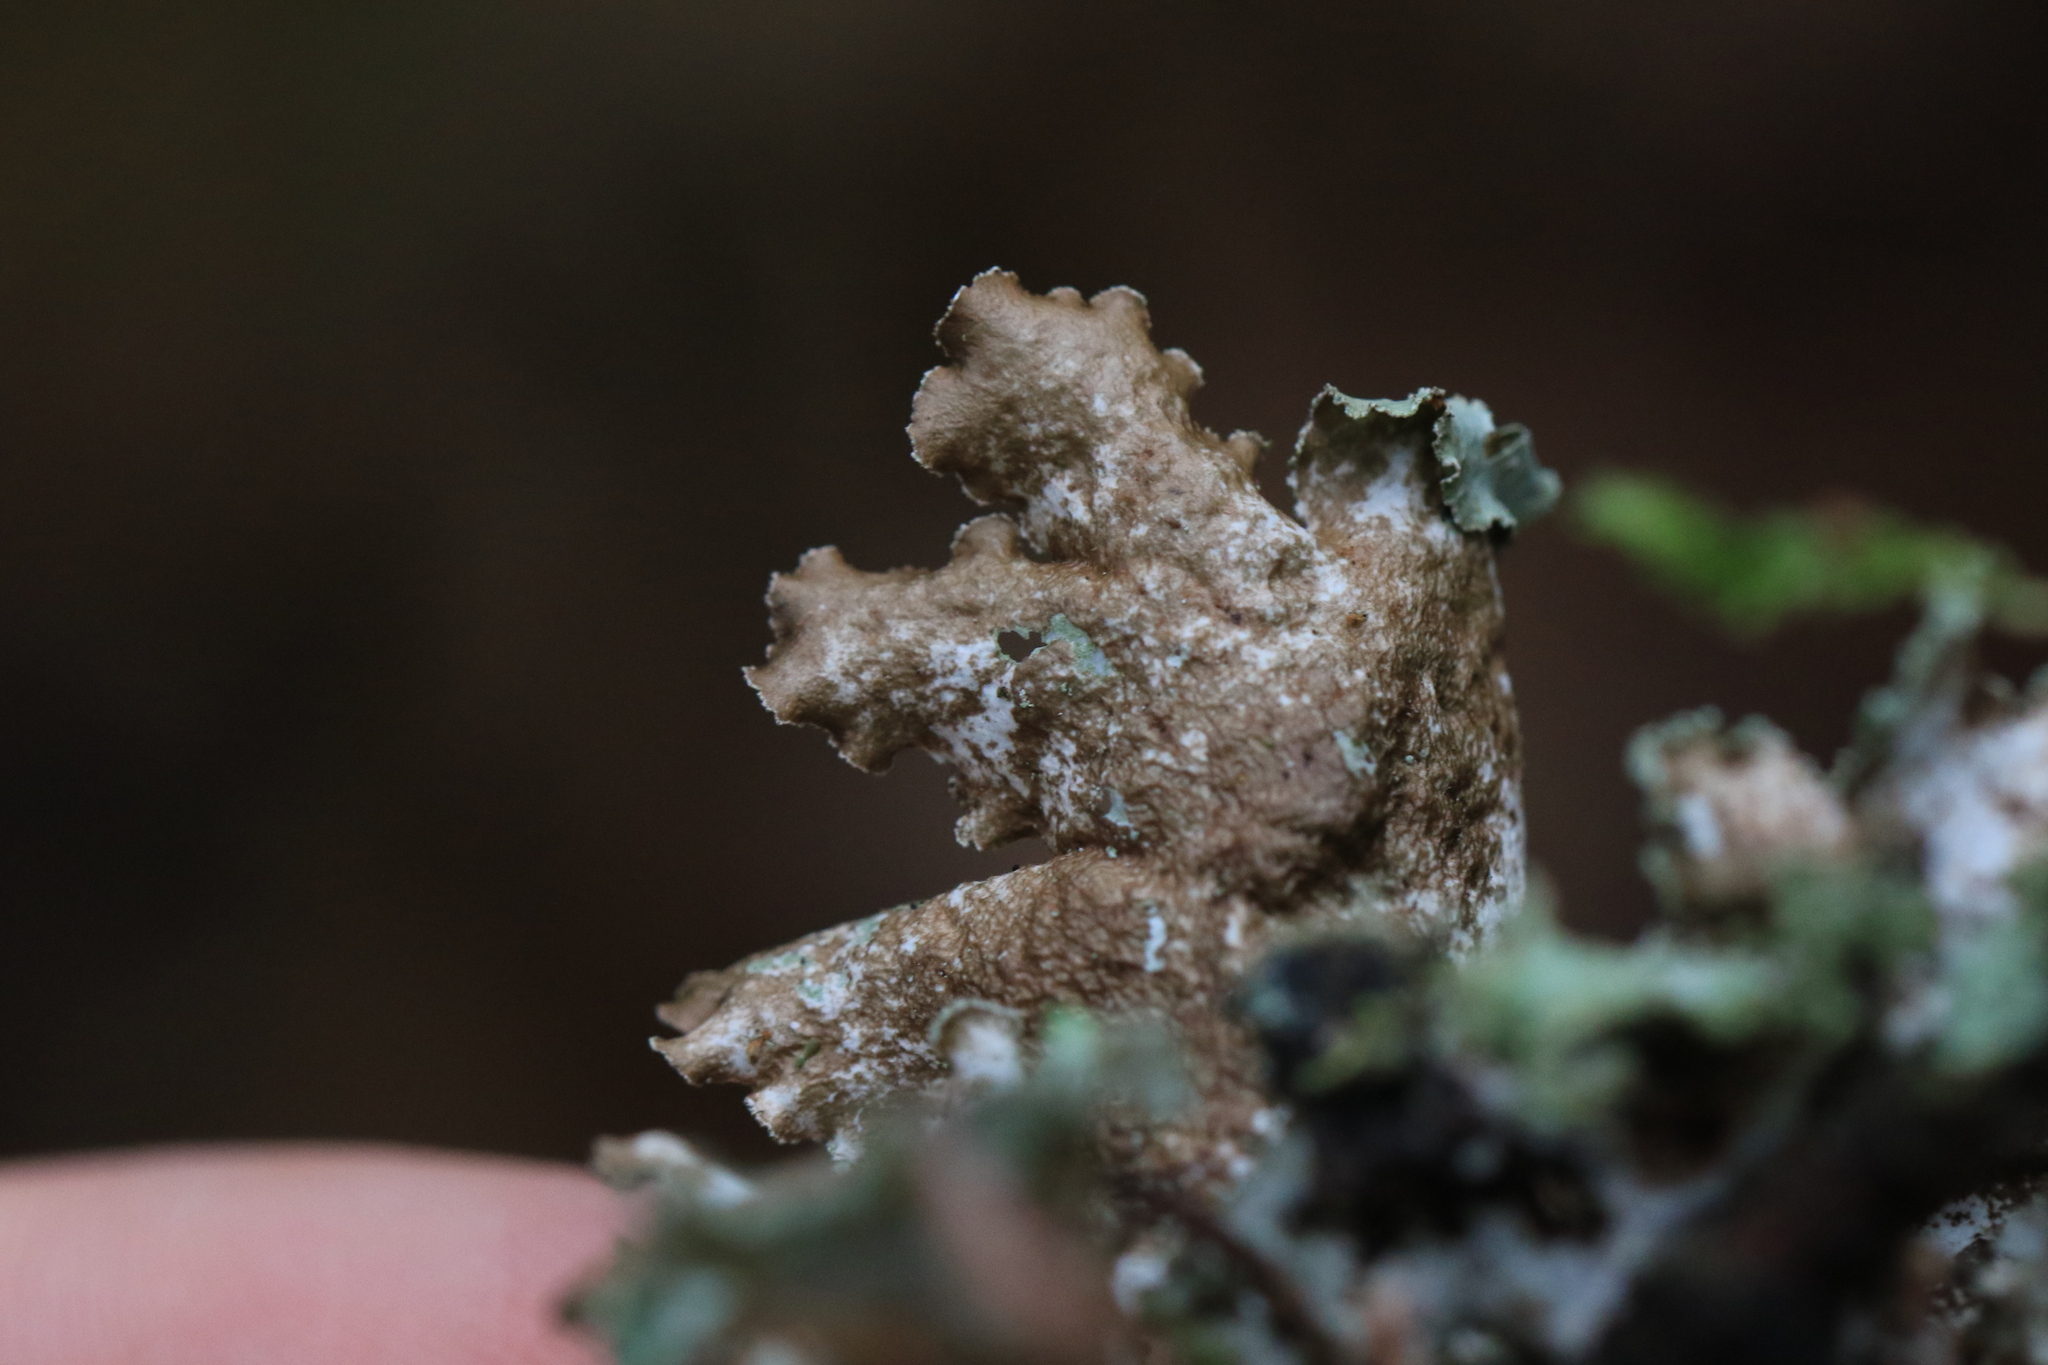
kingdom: Fungi
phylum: Ascomycota
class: Lecanoromycetes
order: Lecanorales
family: Parmeliaceae
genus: Platismatia
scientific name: Platismatia glauca
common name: Varied rag lichen
